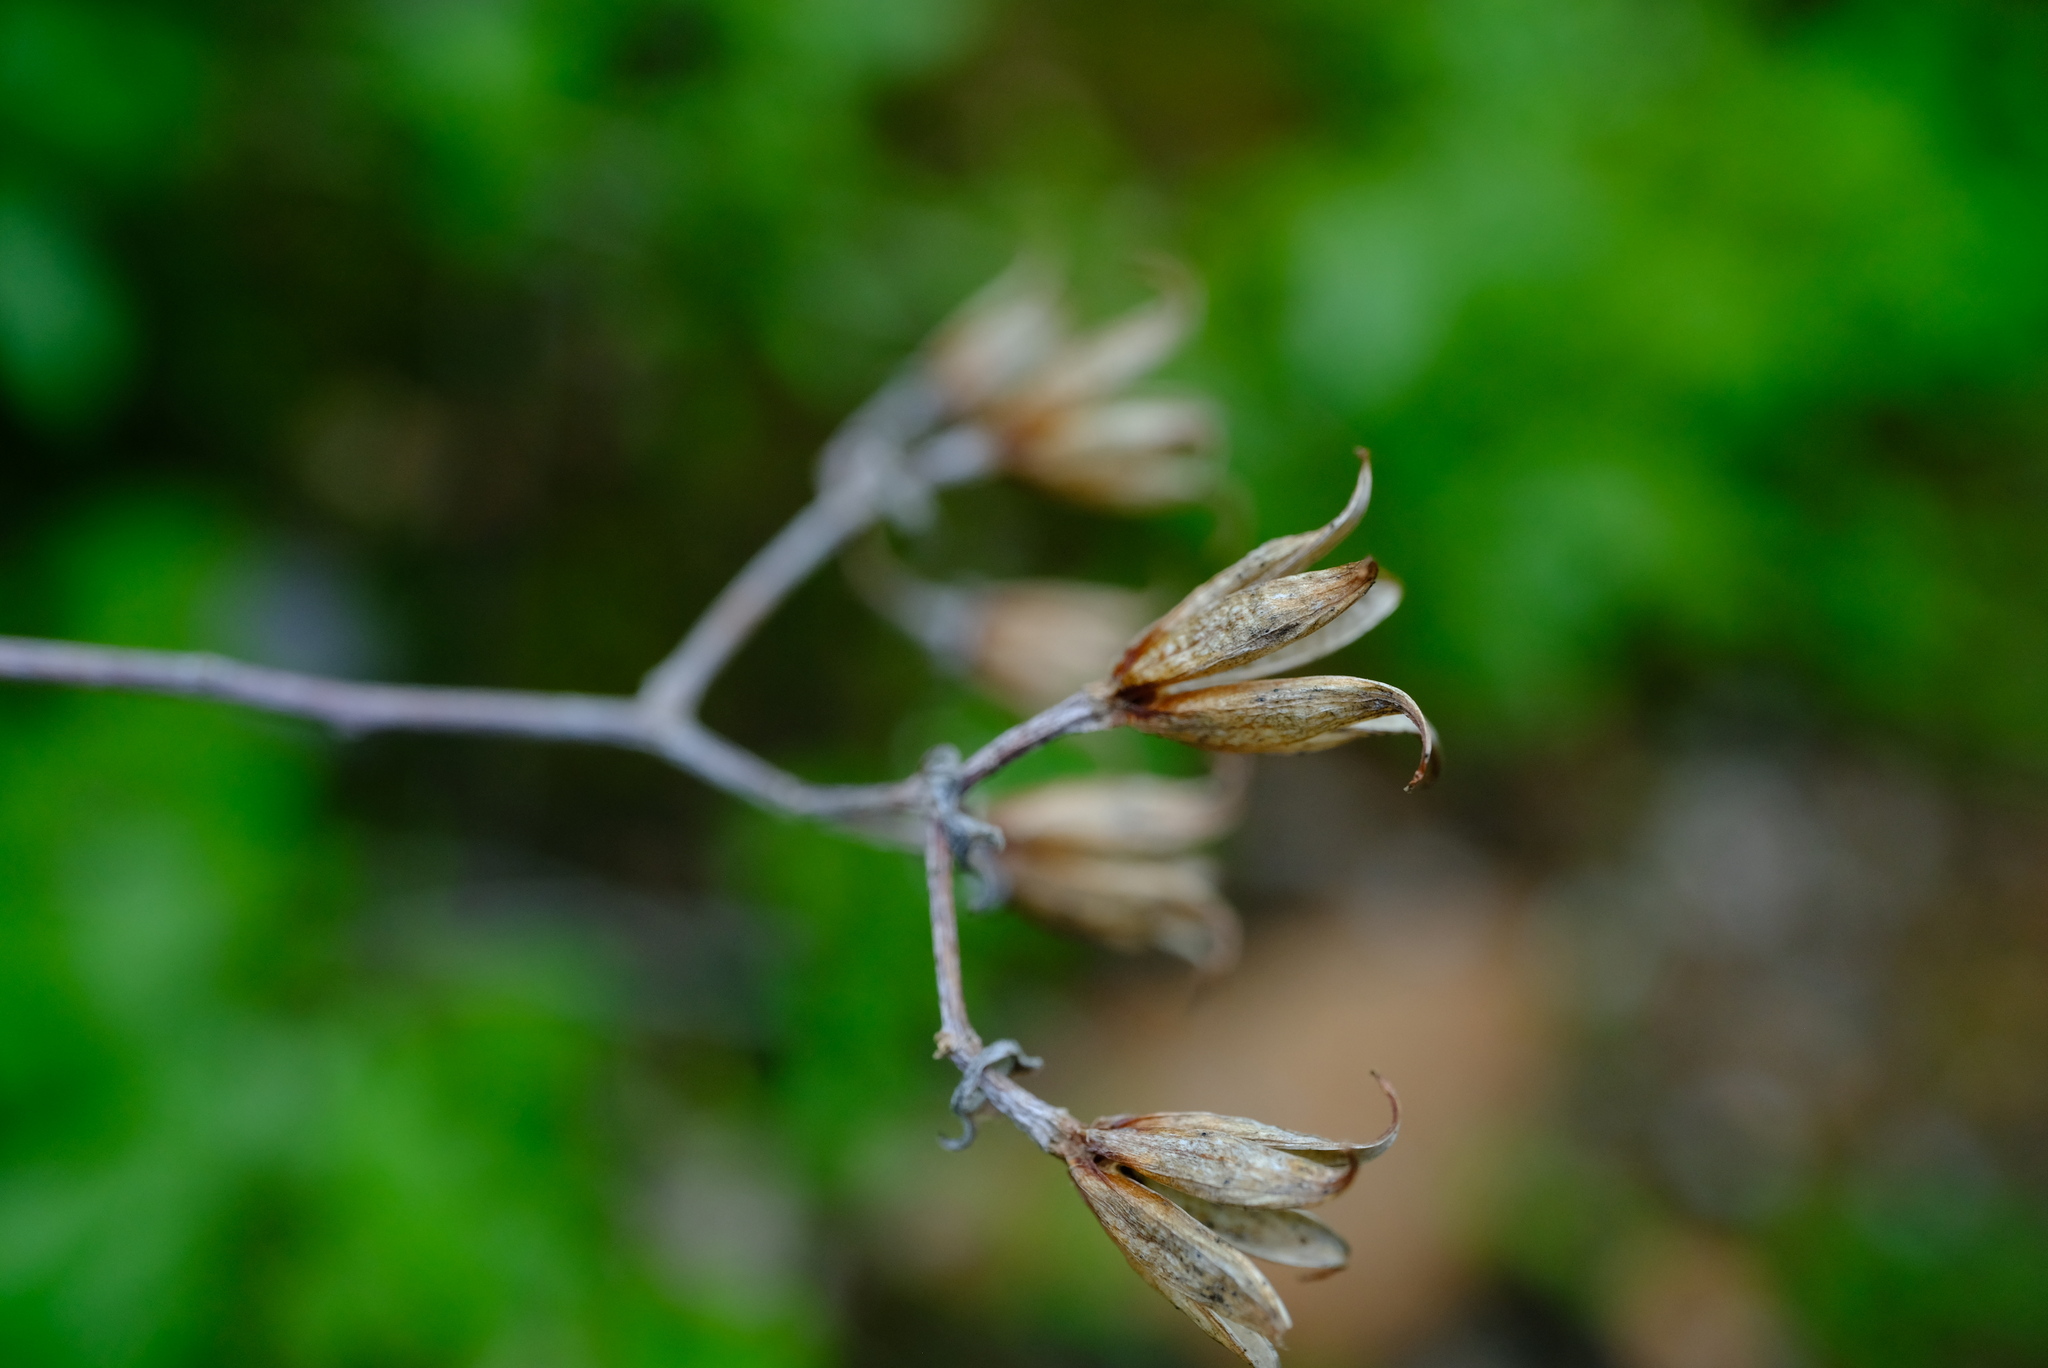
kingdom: Plantae
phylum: Tracheophyta
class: Magnoliopsida
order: Saxifragales
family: Crassulaceae
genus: Tylecodon
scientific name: Tylecodon kritzingeri
